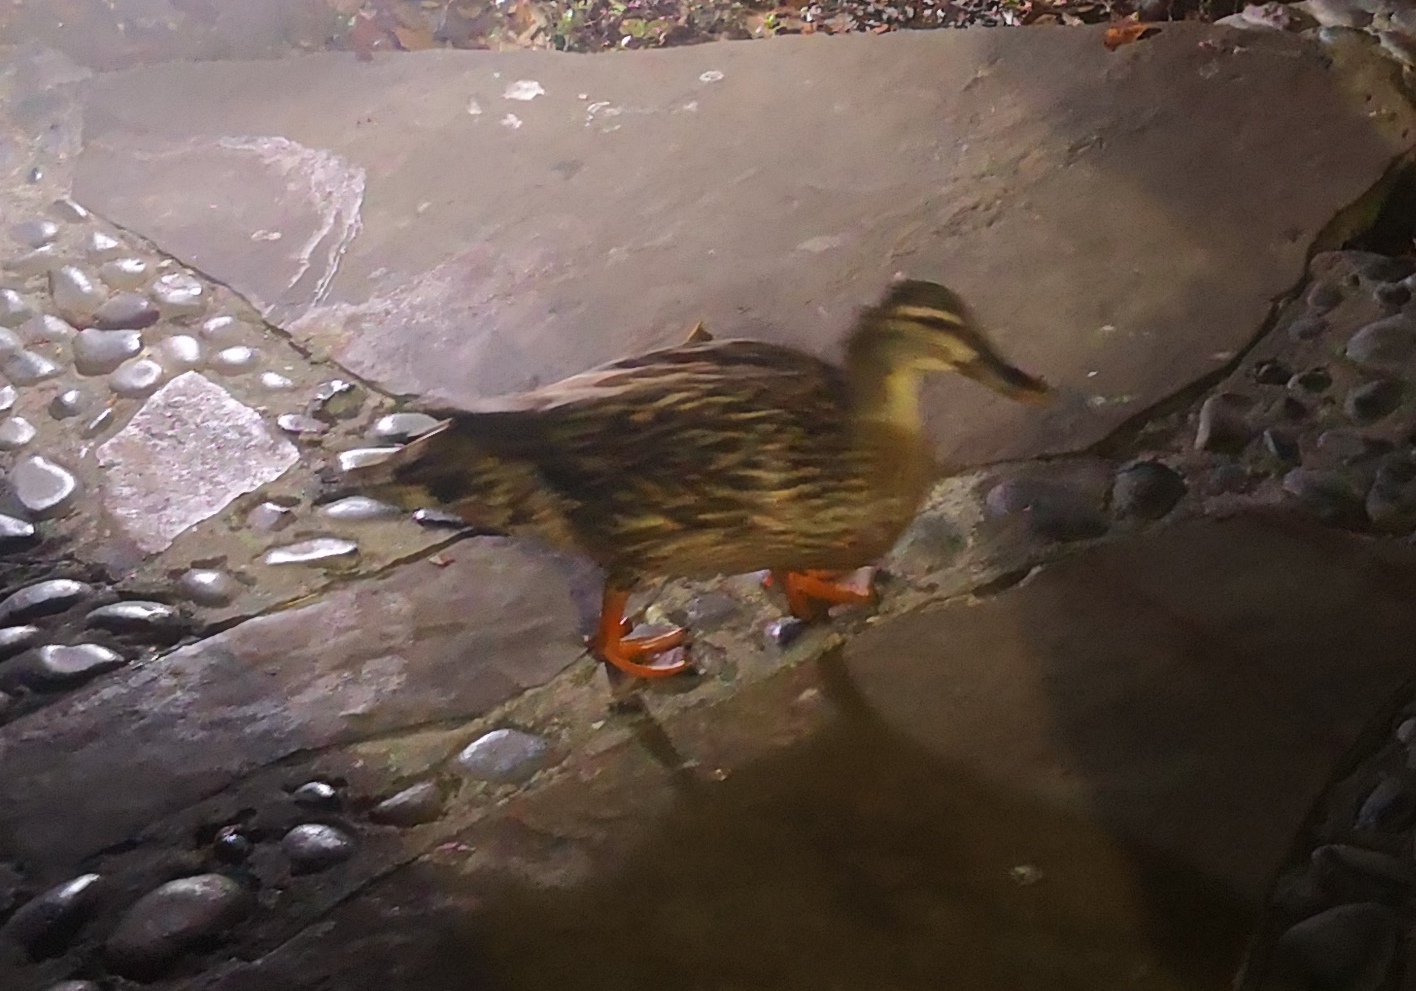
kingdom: Animalia
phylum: Chordata
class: Aves
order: Anseriformes
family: Anatidae
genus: Anas
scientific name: Anas
